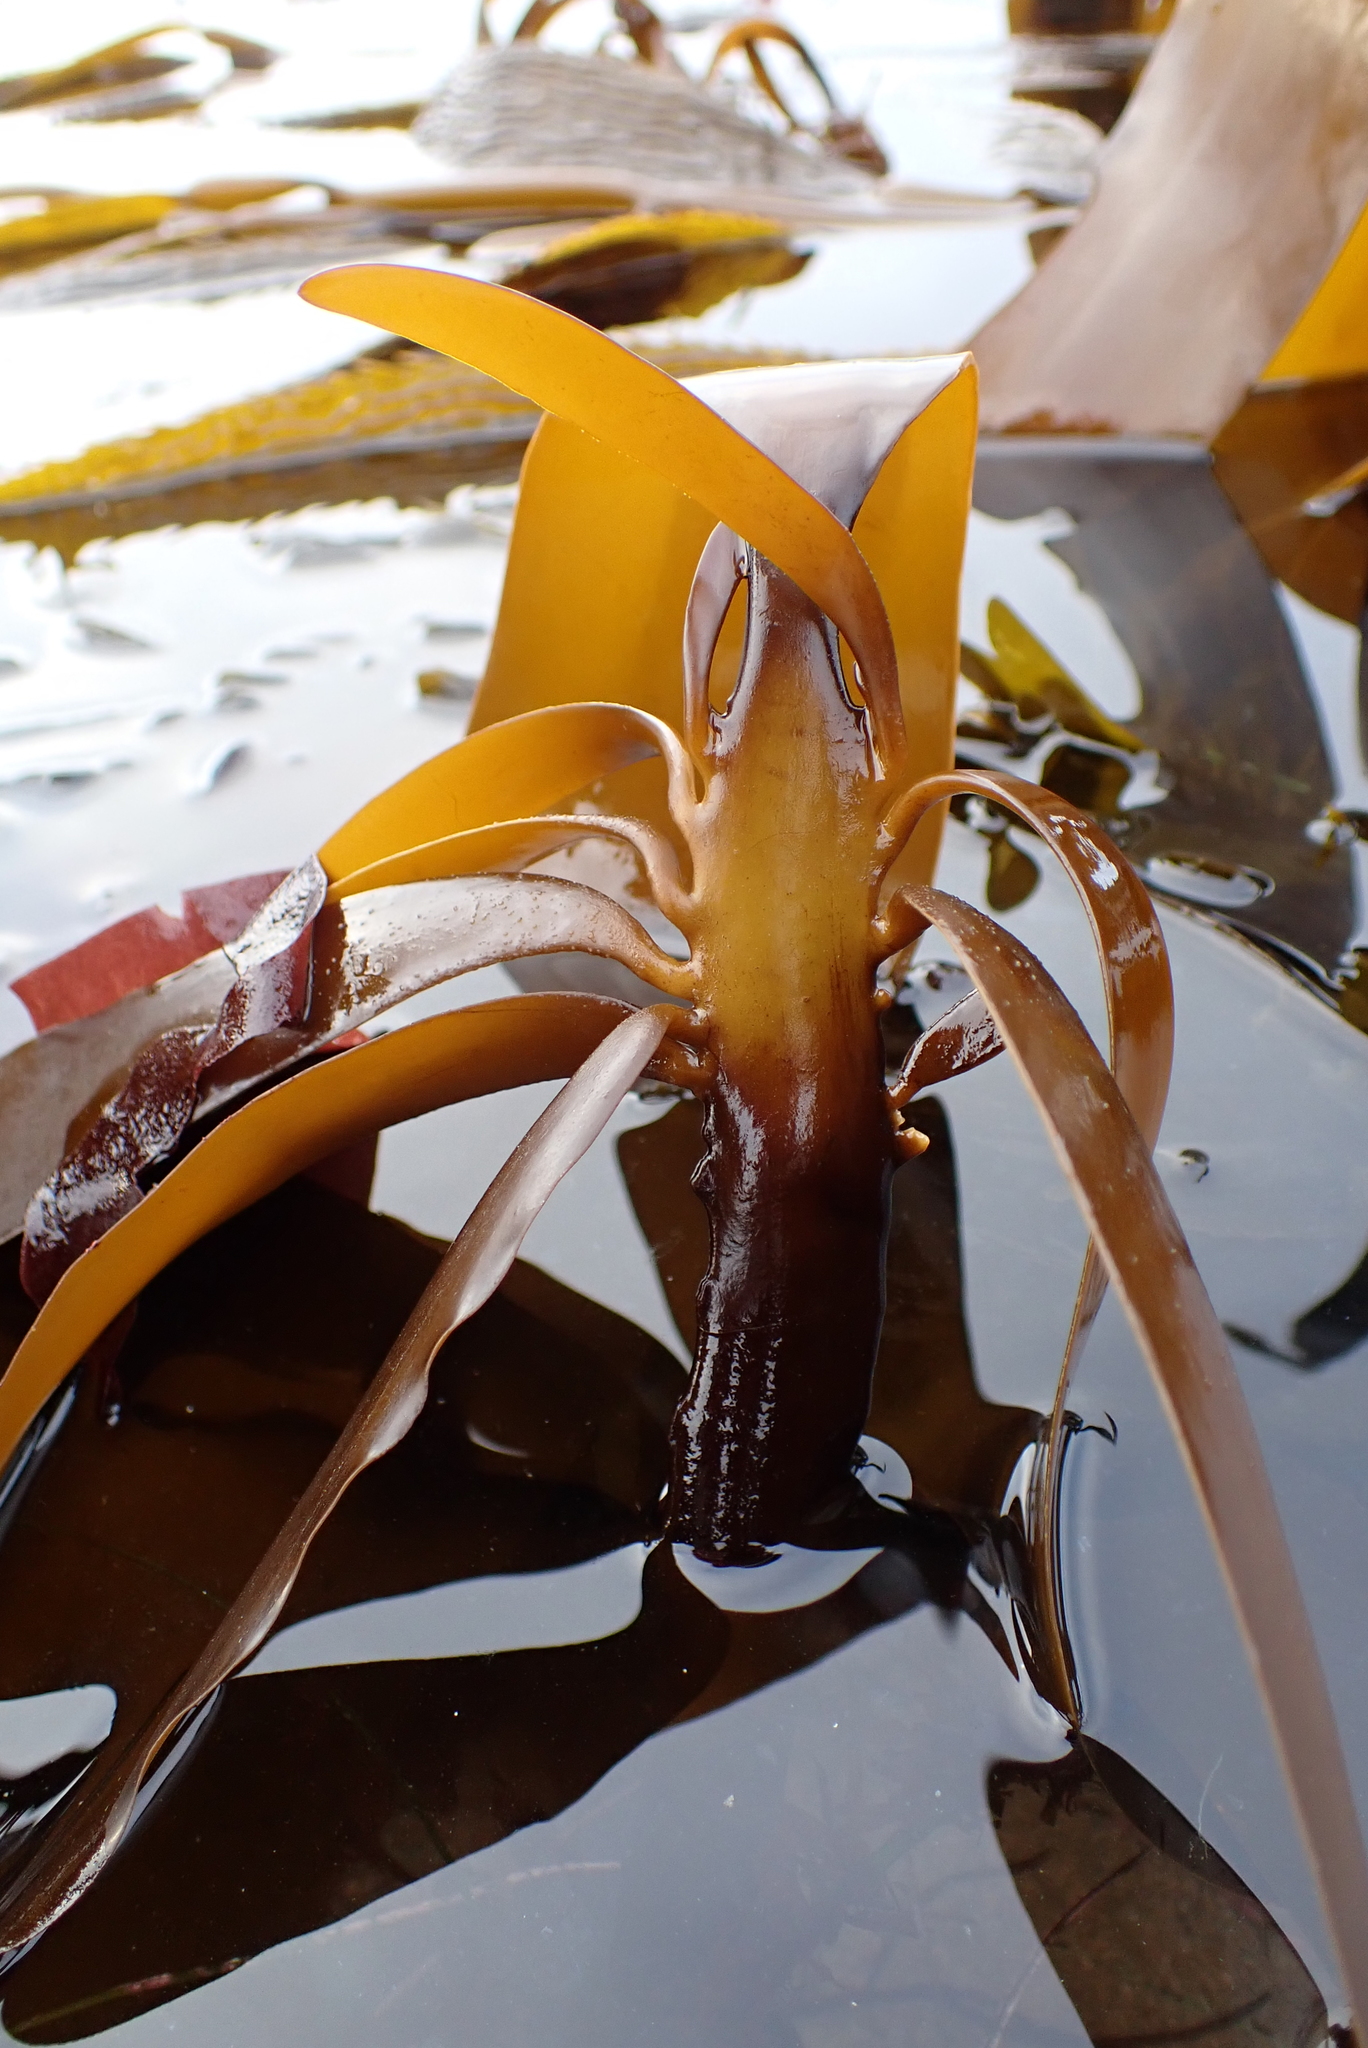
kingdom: Chromista
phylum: Ochrophyta
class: Phaeophyceae
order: Laminariales
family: Alariaceae
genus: Pterygophora
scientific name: Pterygophora californica
